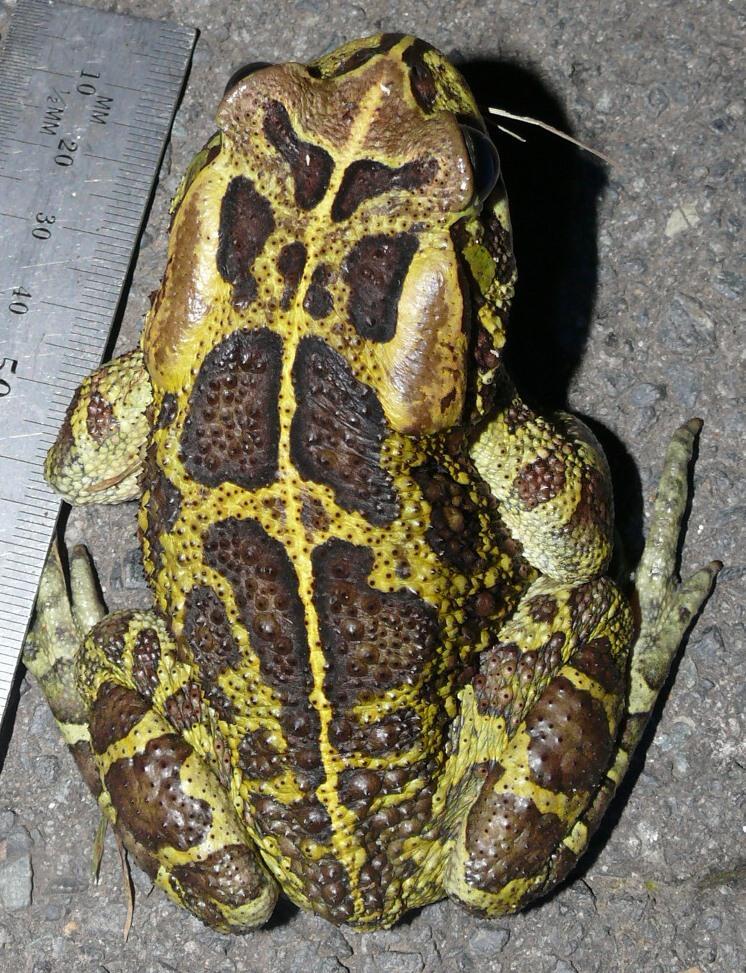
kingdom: Animalia
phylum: Chordata
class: Amphibia
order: Anura
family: Bufonidae
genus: Sclerophrys
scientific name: Sclerophrys pantherina
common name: Panther toad
